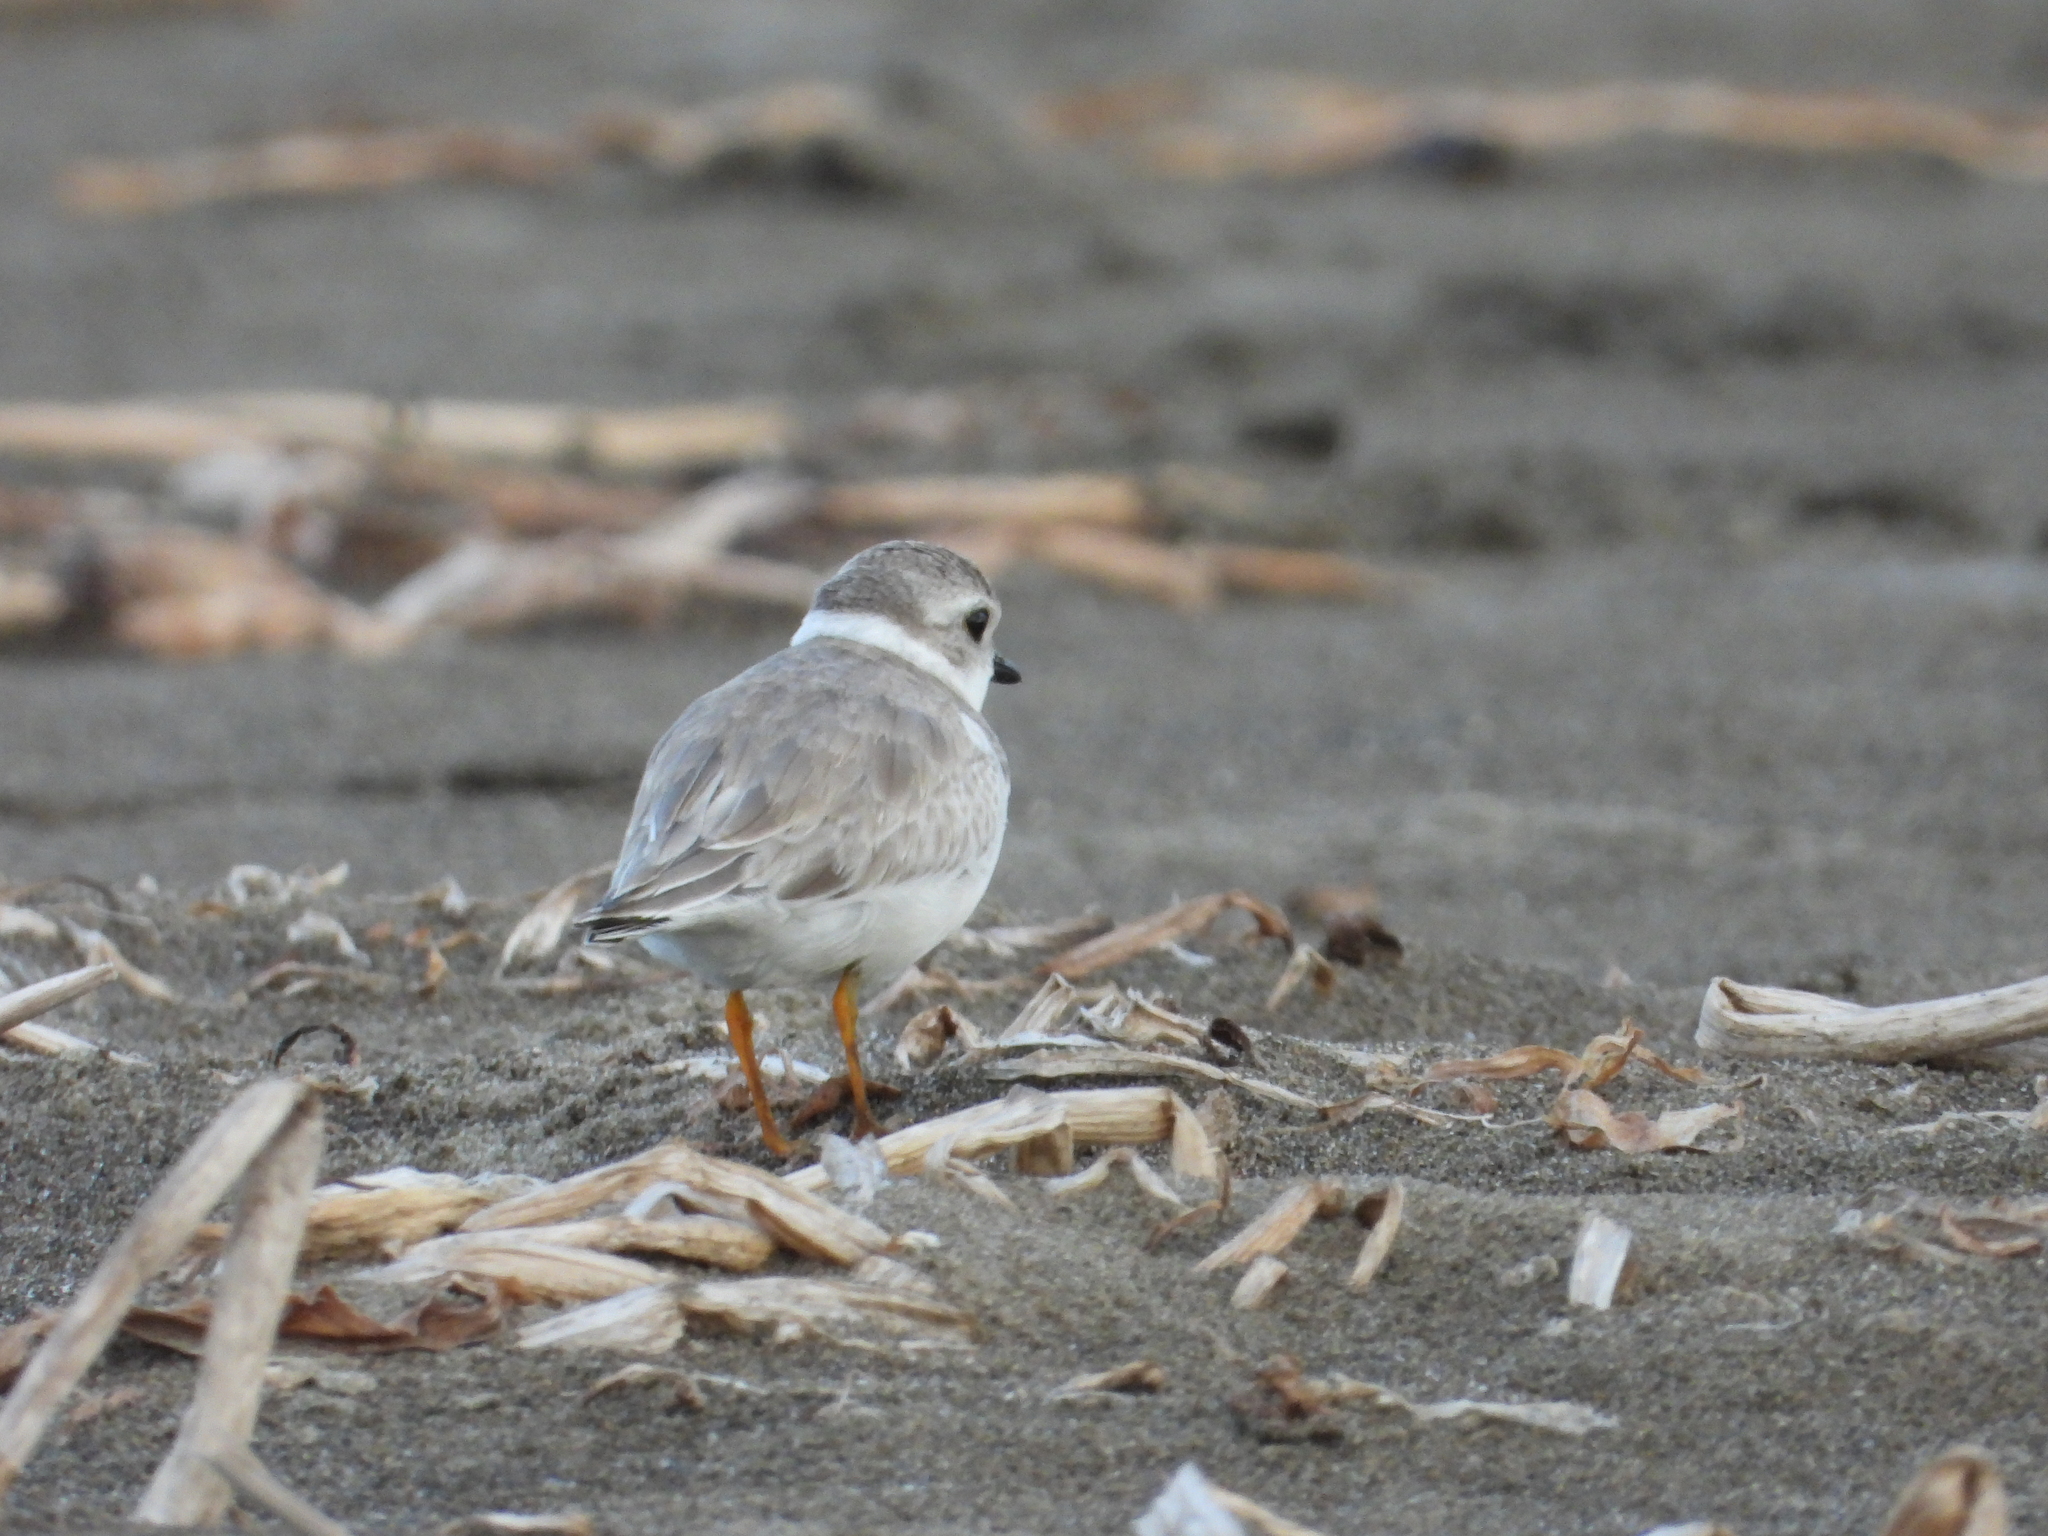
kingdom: Animalia
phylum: Chordata
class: Aves
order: Charadriiformes
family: Charadriidae
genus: Charadrius
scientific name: Charadrius melodus
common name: Piping plover
